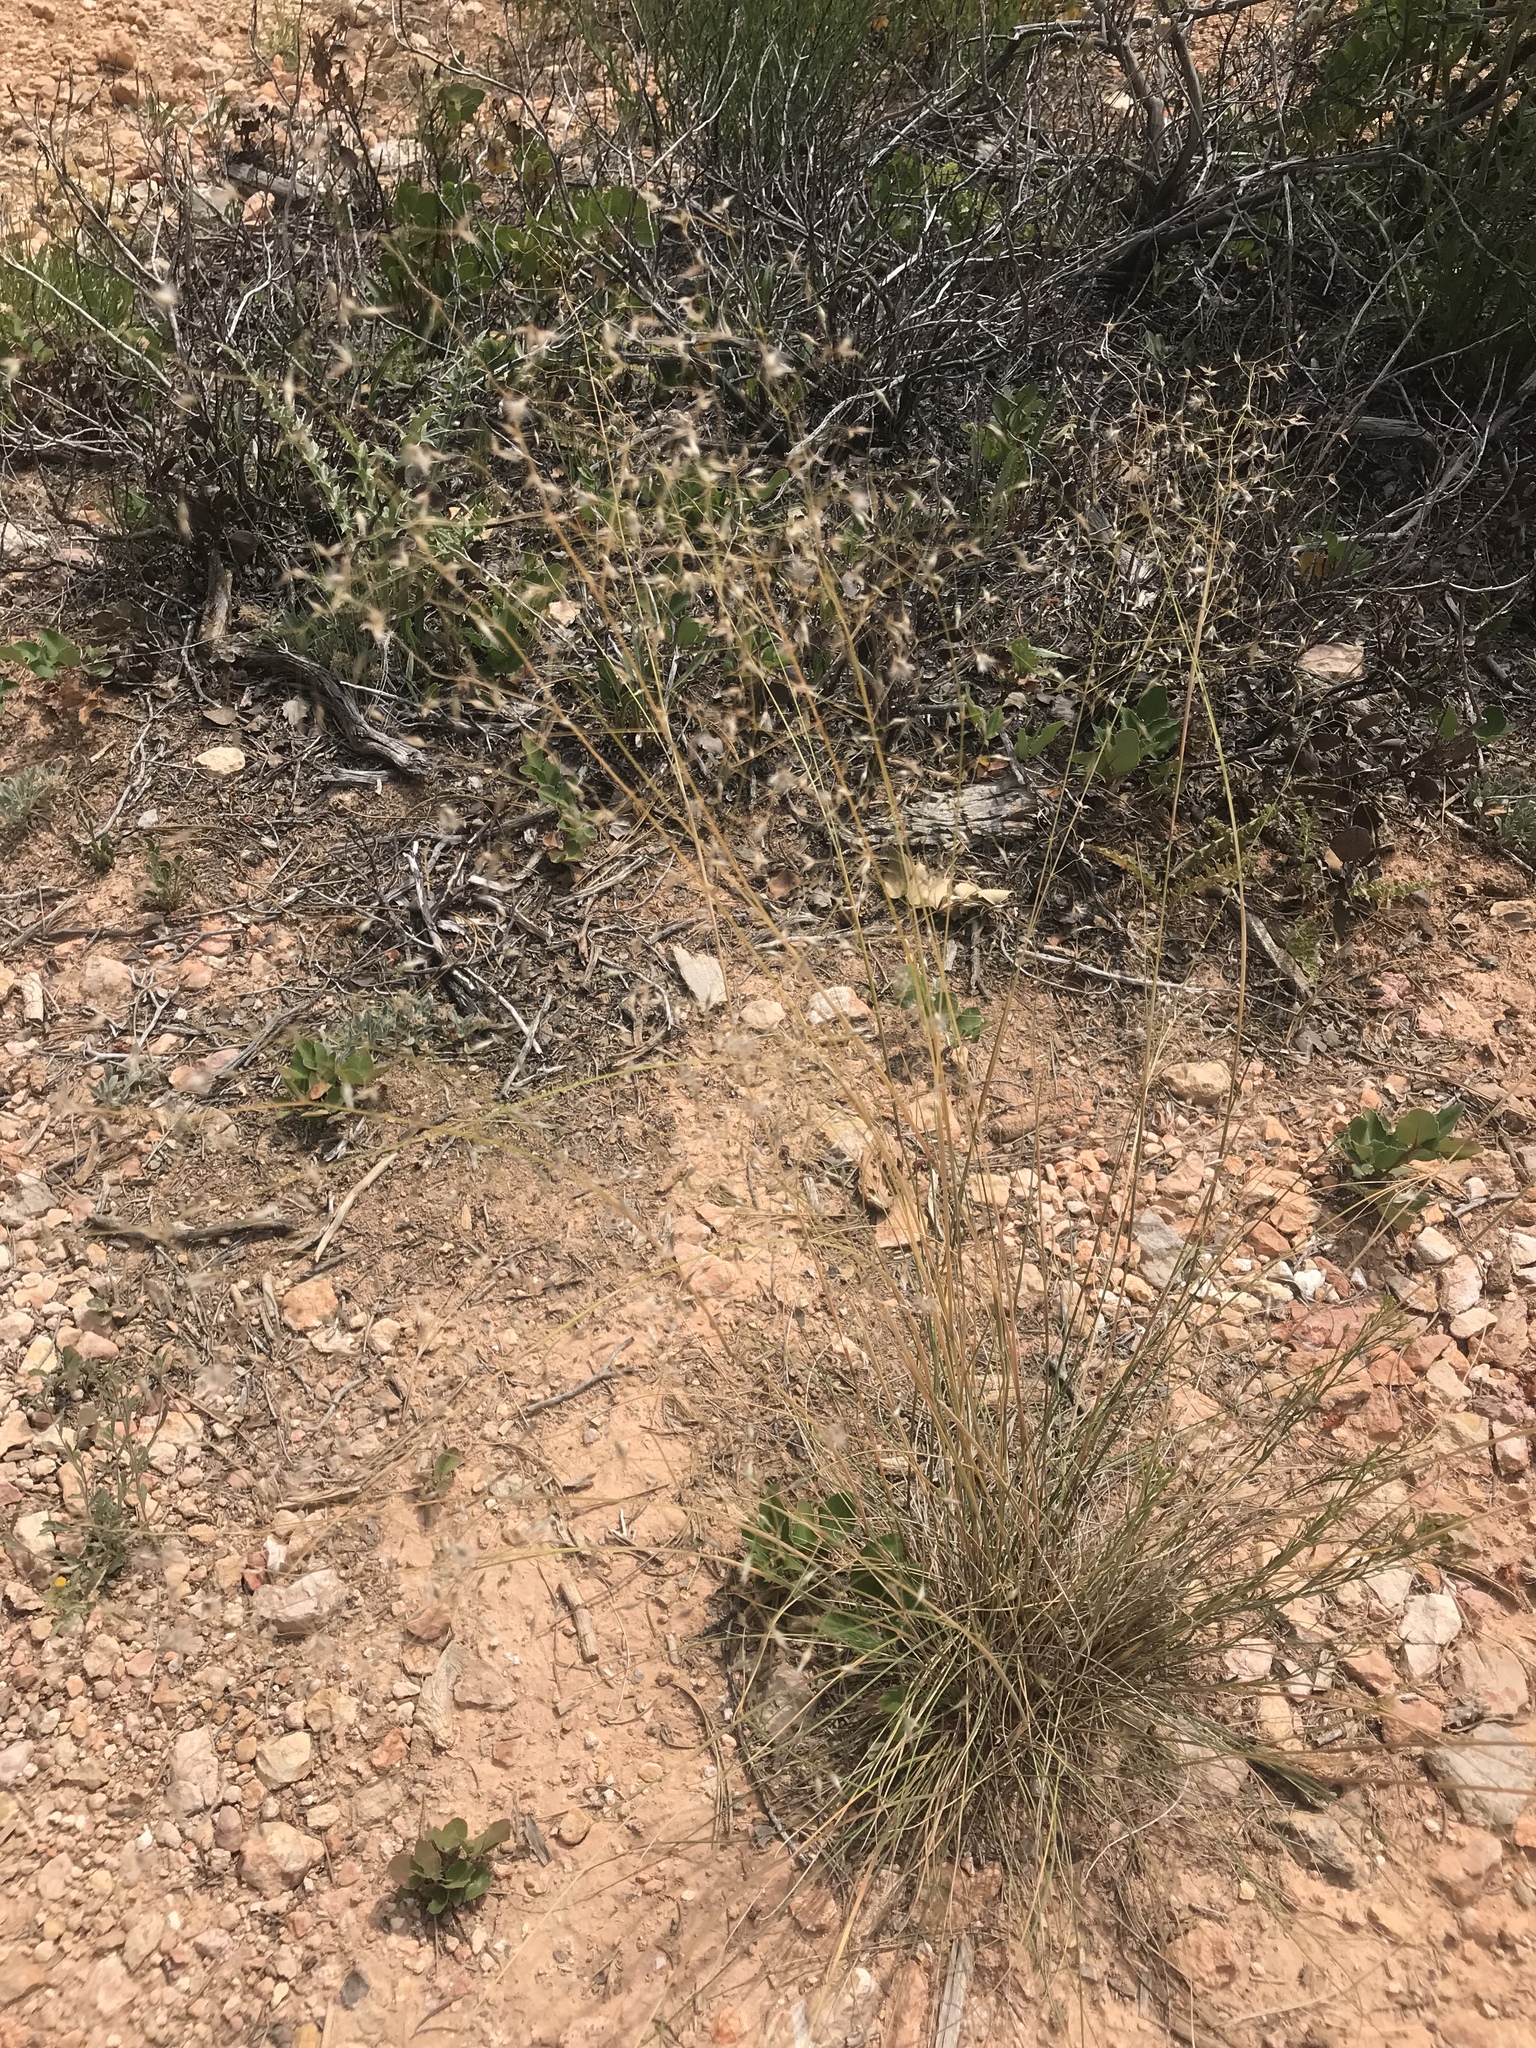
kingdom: Plantae
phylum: Tracheophyta
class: Liliopsida
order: Poales
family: Poaceae
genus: Eriocoma
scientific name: Eriocoma hymenoides
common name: Indian mountain ricegrass
